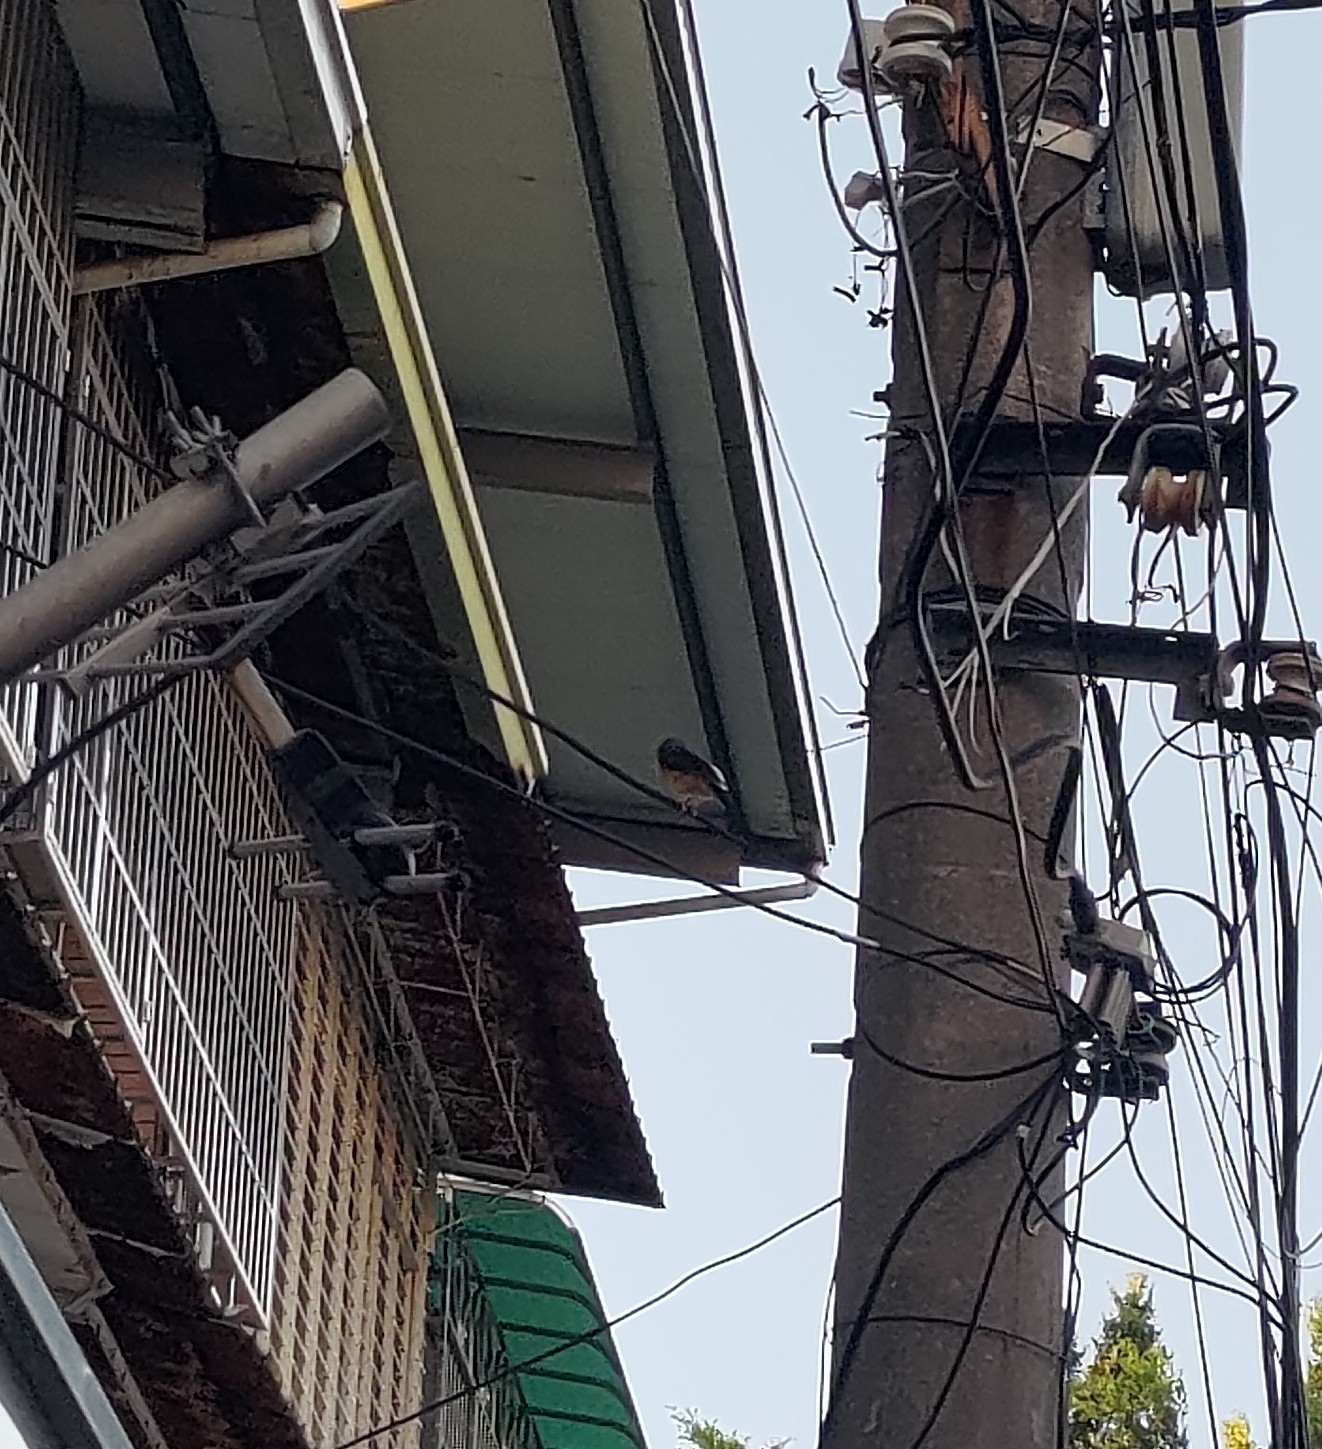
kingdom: Animalia
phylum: Chordata
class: Aves
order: Passeriformes
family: Muscicapidae
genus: Copsychus
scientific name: Copsychus malabaricus
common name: White-rumped shama
